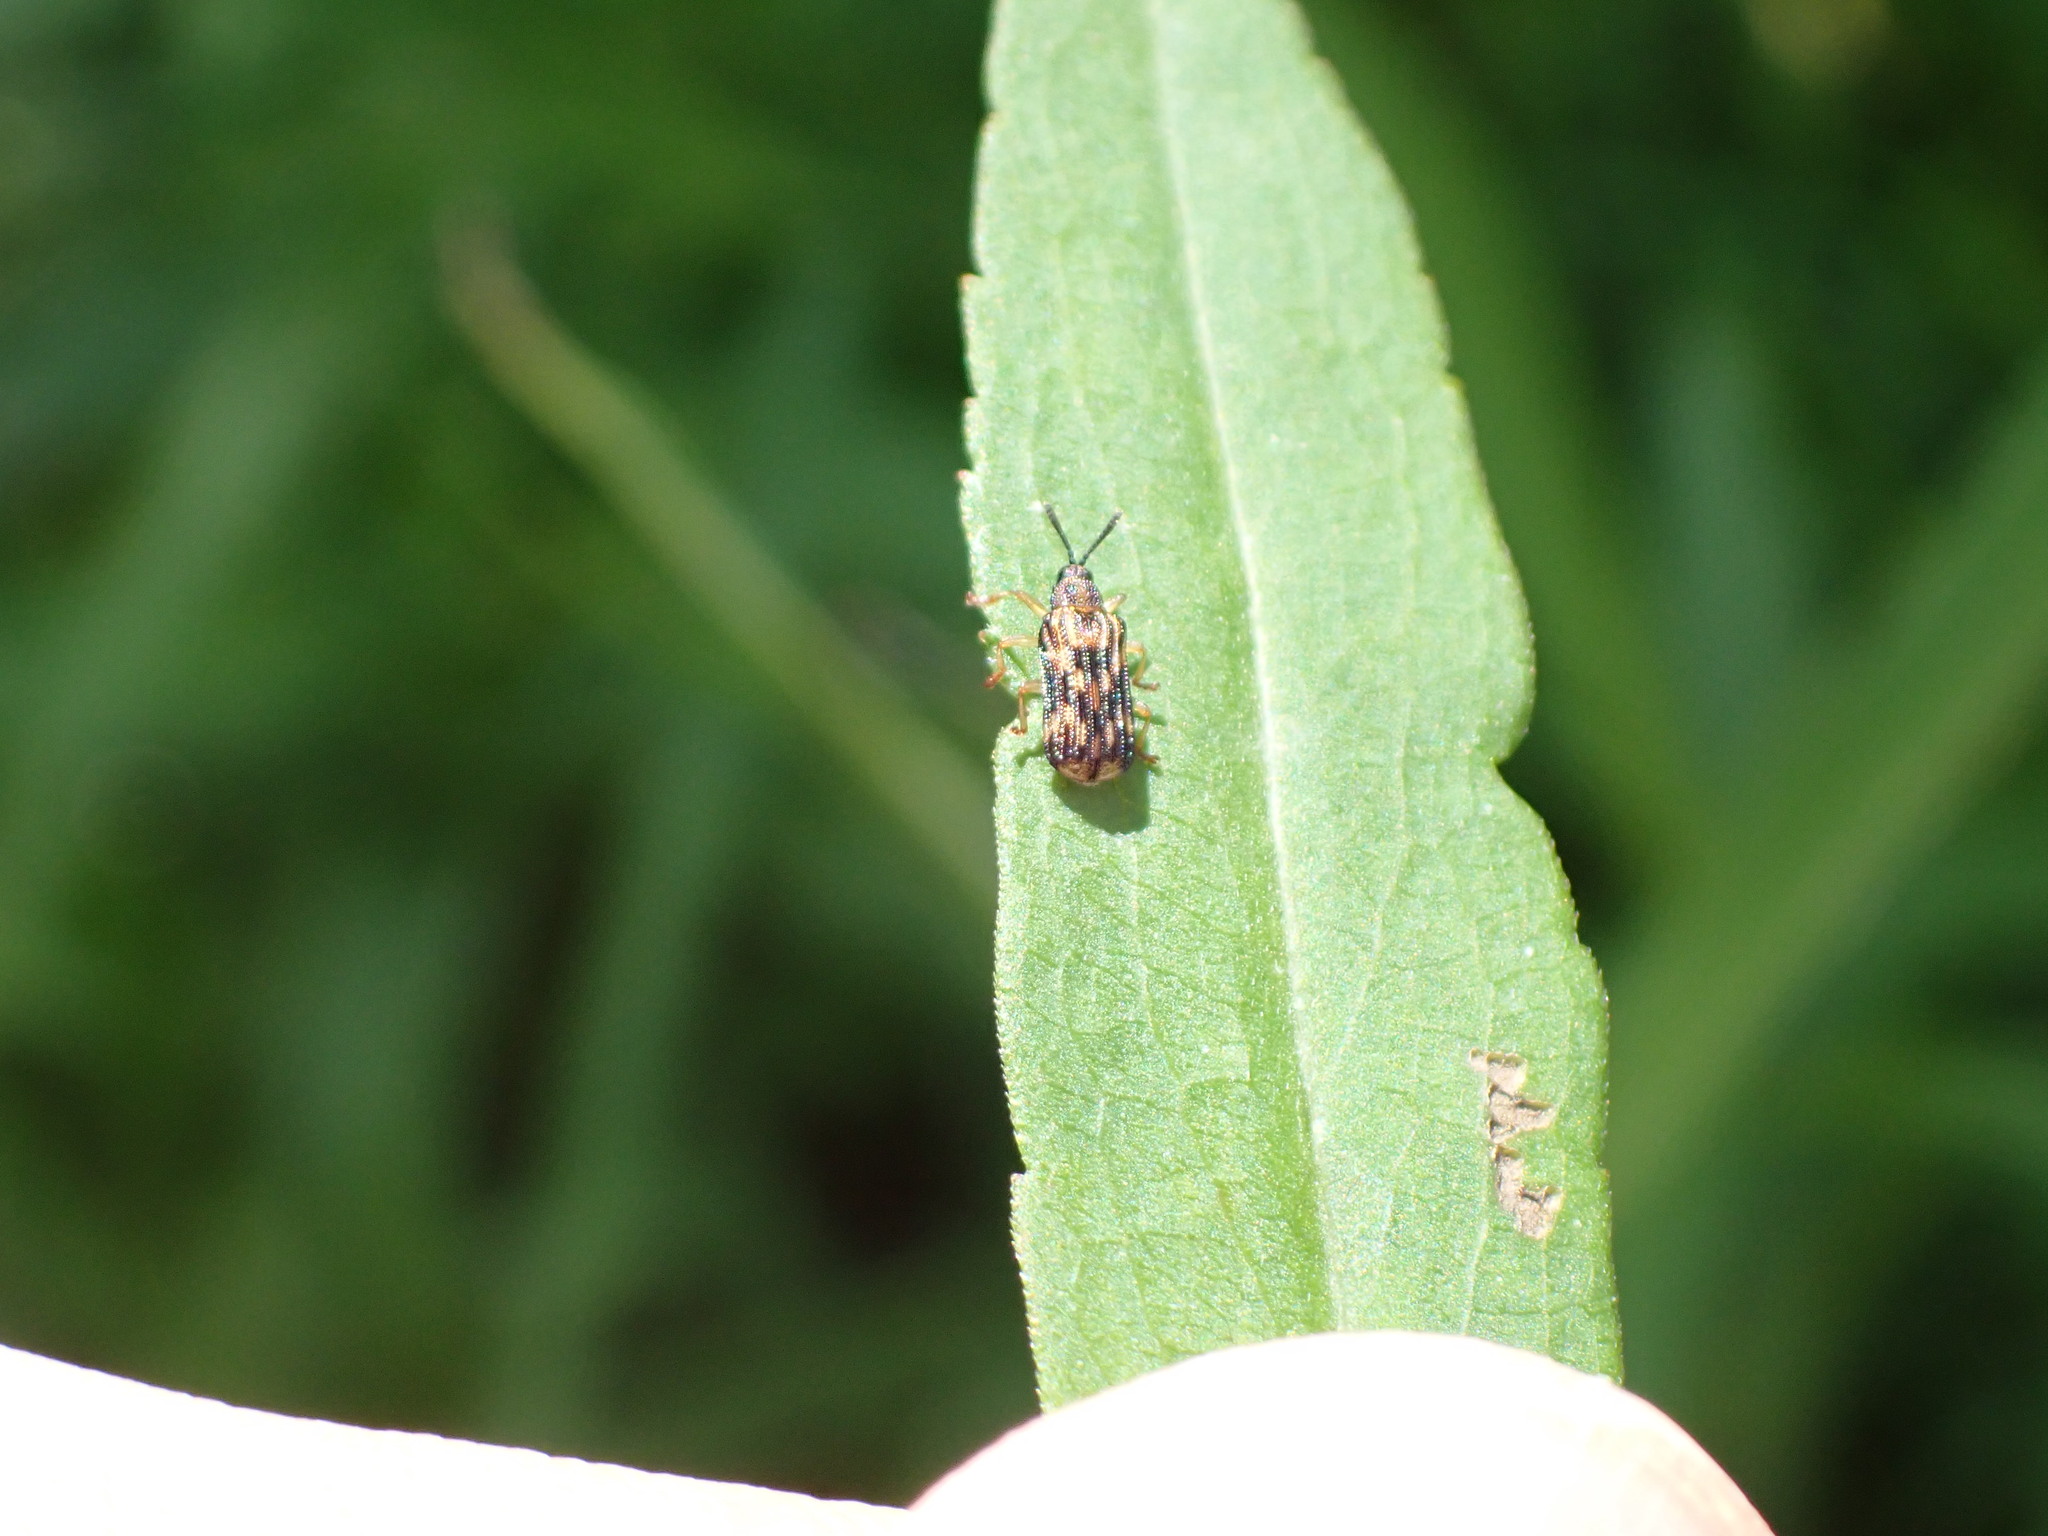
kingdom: Animalia
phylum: Arthropoda
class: Insecta
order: Coleoptera
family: Chrysomelidae
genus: Sumitrosis
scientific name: Sumitrosis inaequalis
